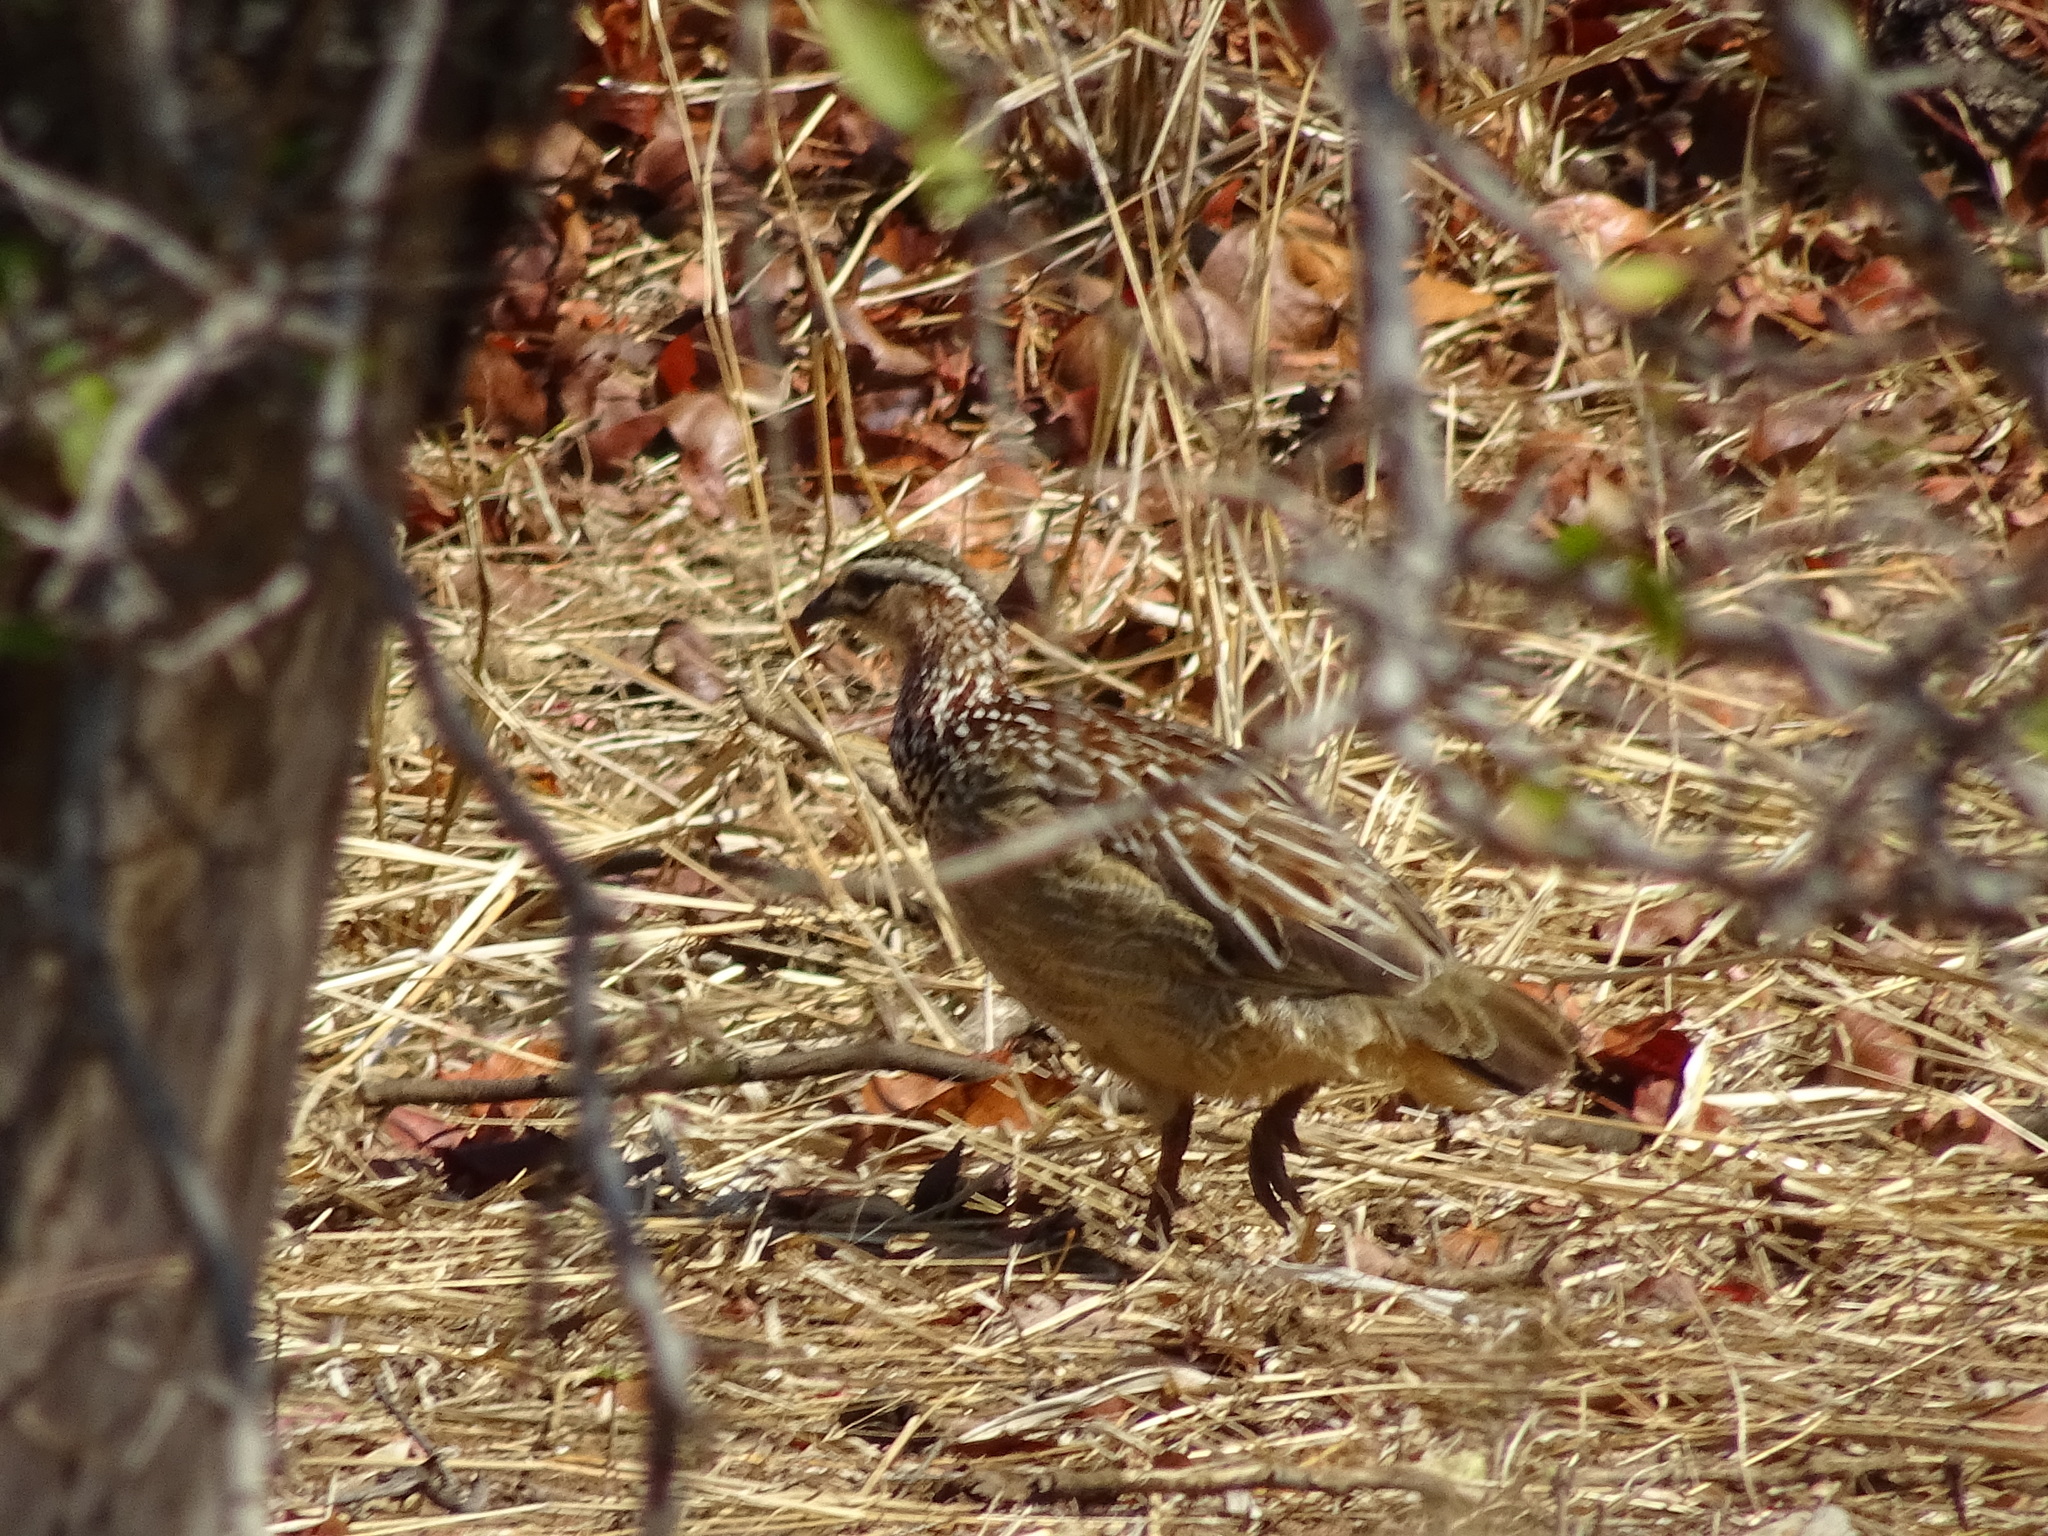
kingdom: Animalia
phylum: Chordata
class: Aves
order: Galliformes
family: Phasianidae
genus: Ortygornis
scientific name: Ortygornis sephaena
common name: Crested francolin
